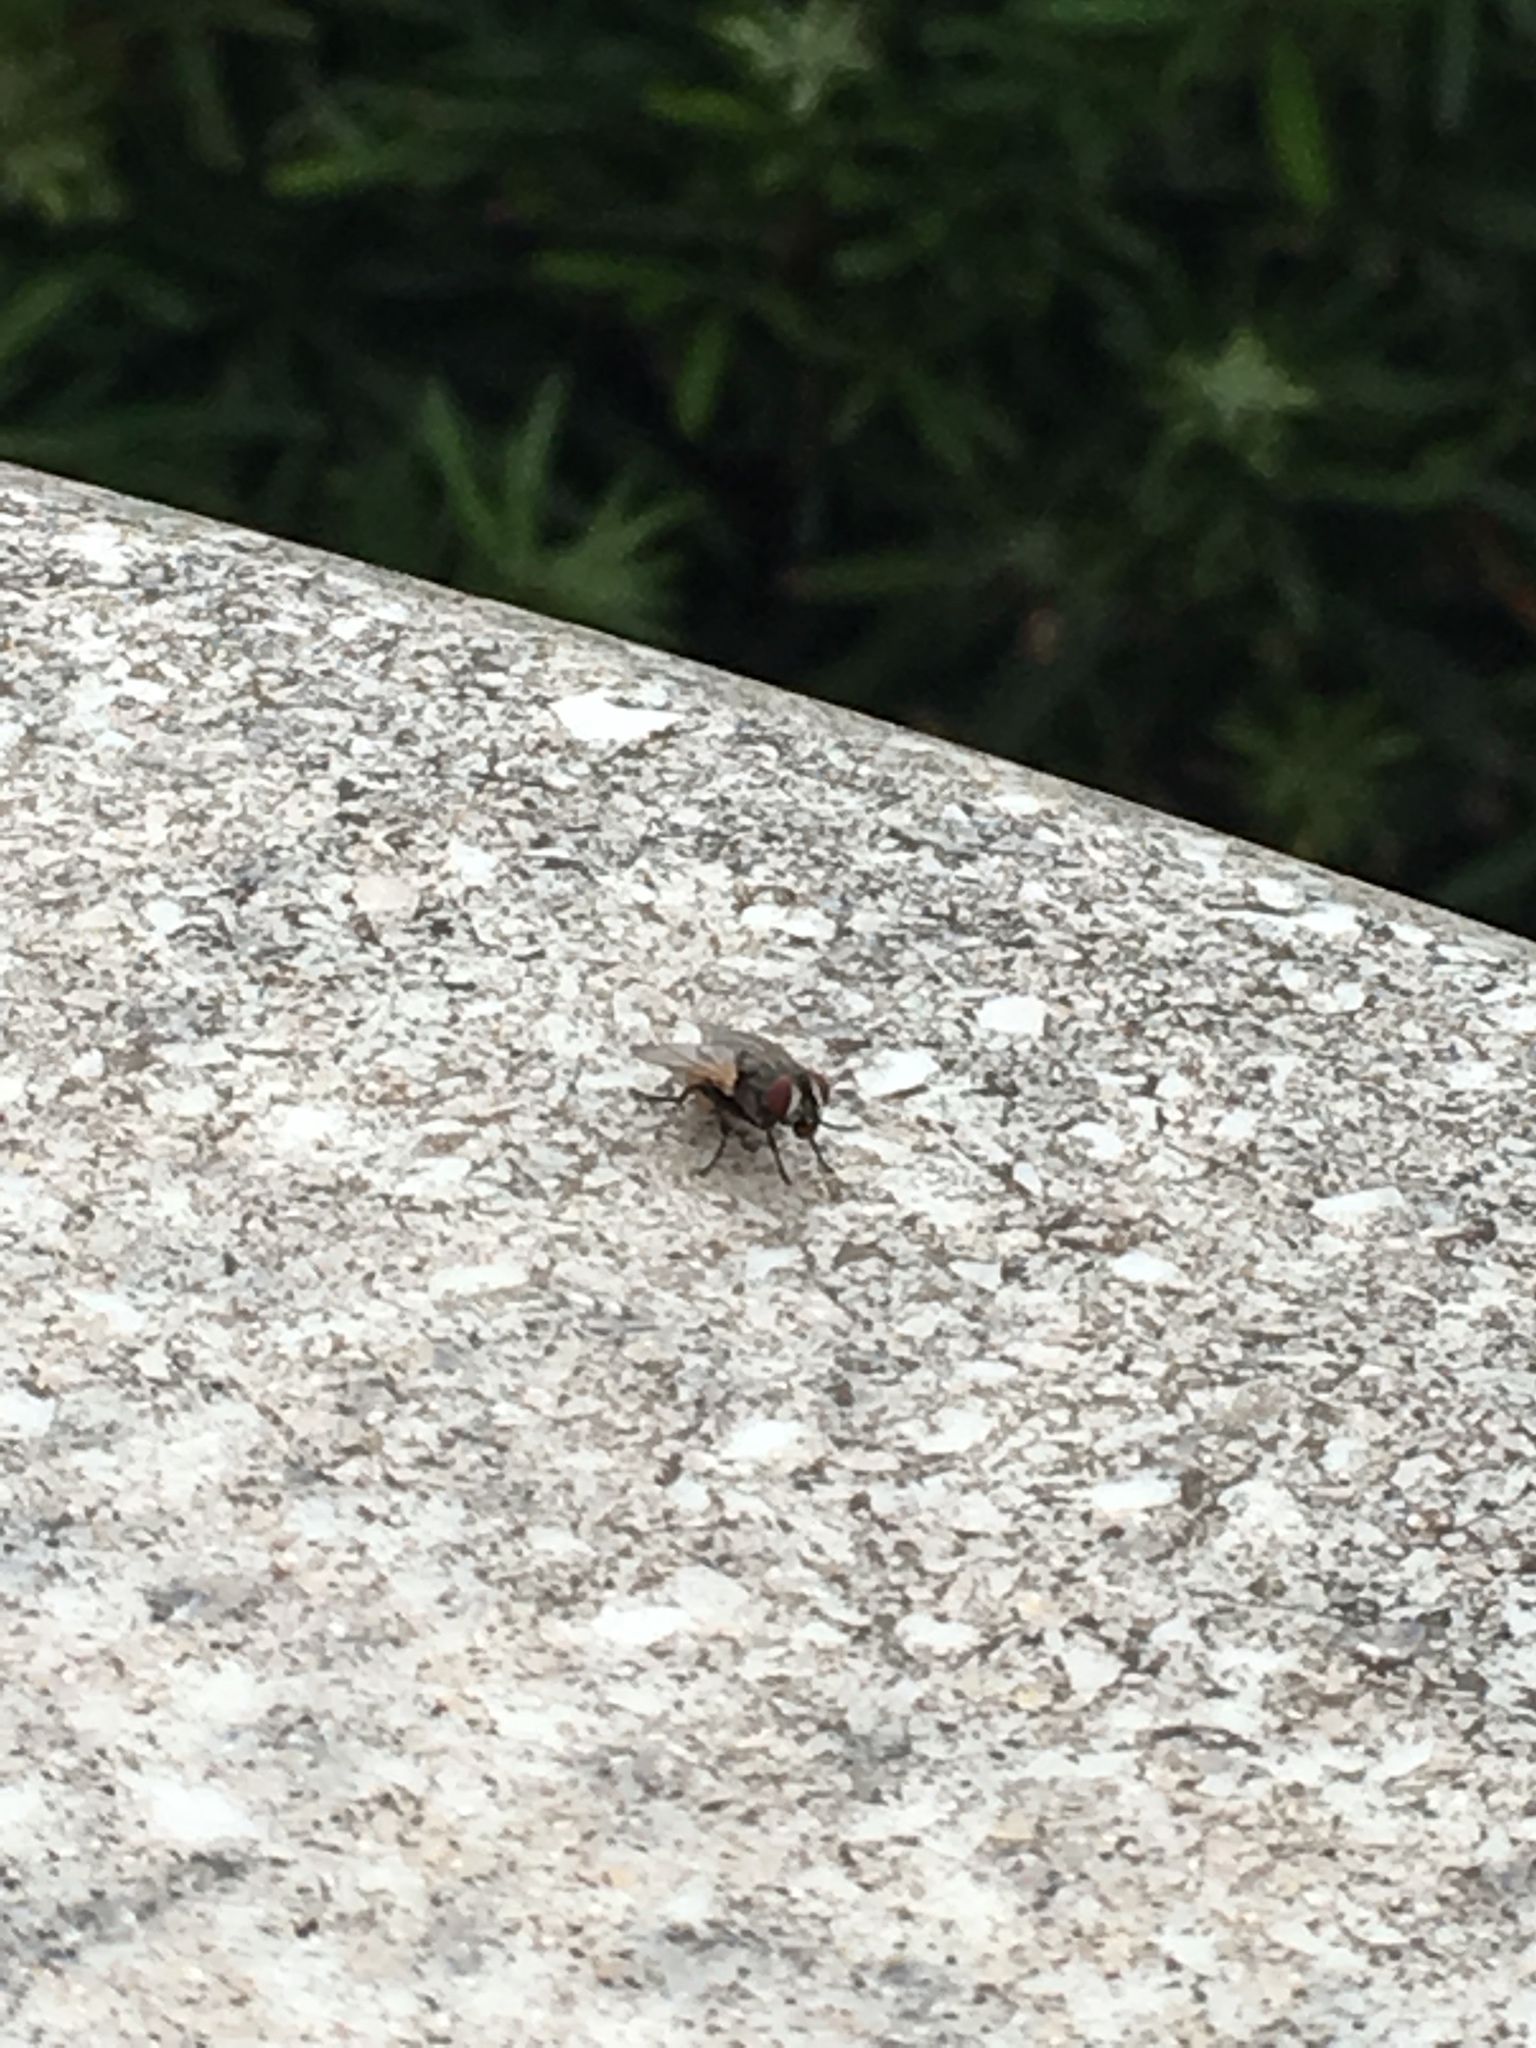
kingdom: Animalia
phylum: Arthropoda
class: Insecta
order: Diptera
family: Muscidae
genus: Musca
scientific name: Musca domestica
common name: House fly
